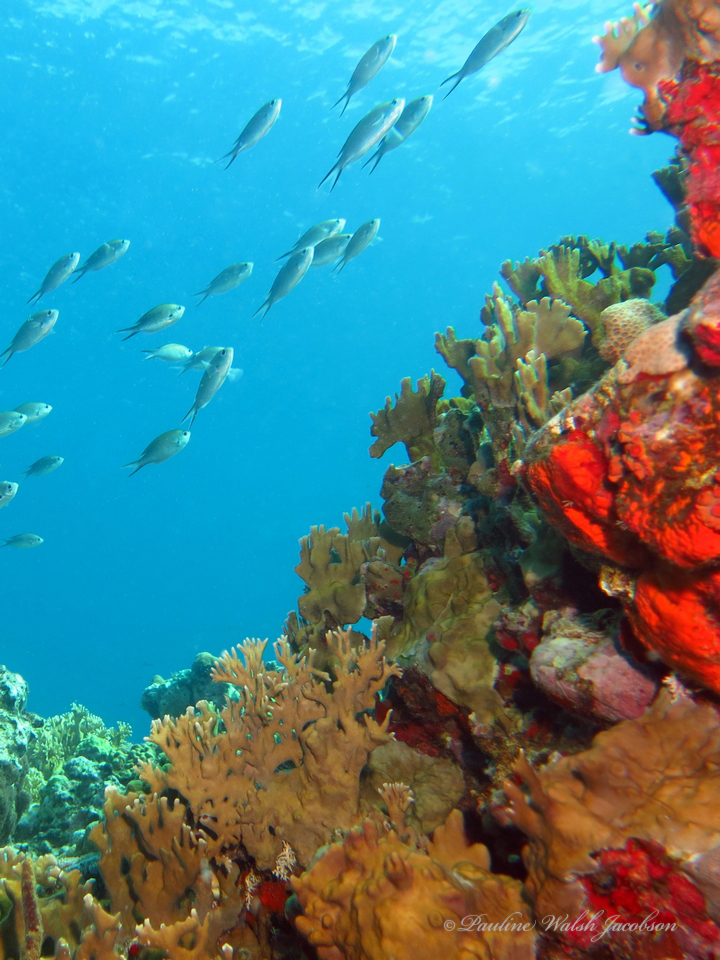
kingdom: Animalia
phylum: Chordata
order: Perciformes
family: Pomacentridae
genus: Chromis
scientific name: Chromis multilineata
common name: Brown chromis
